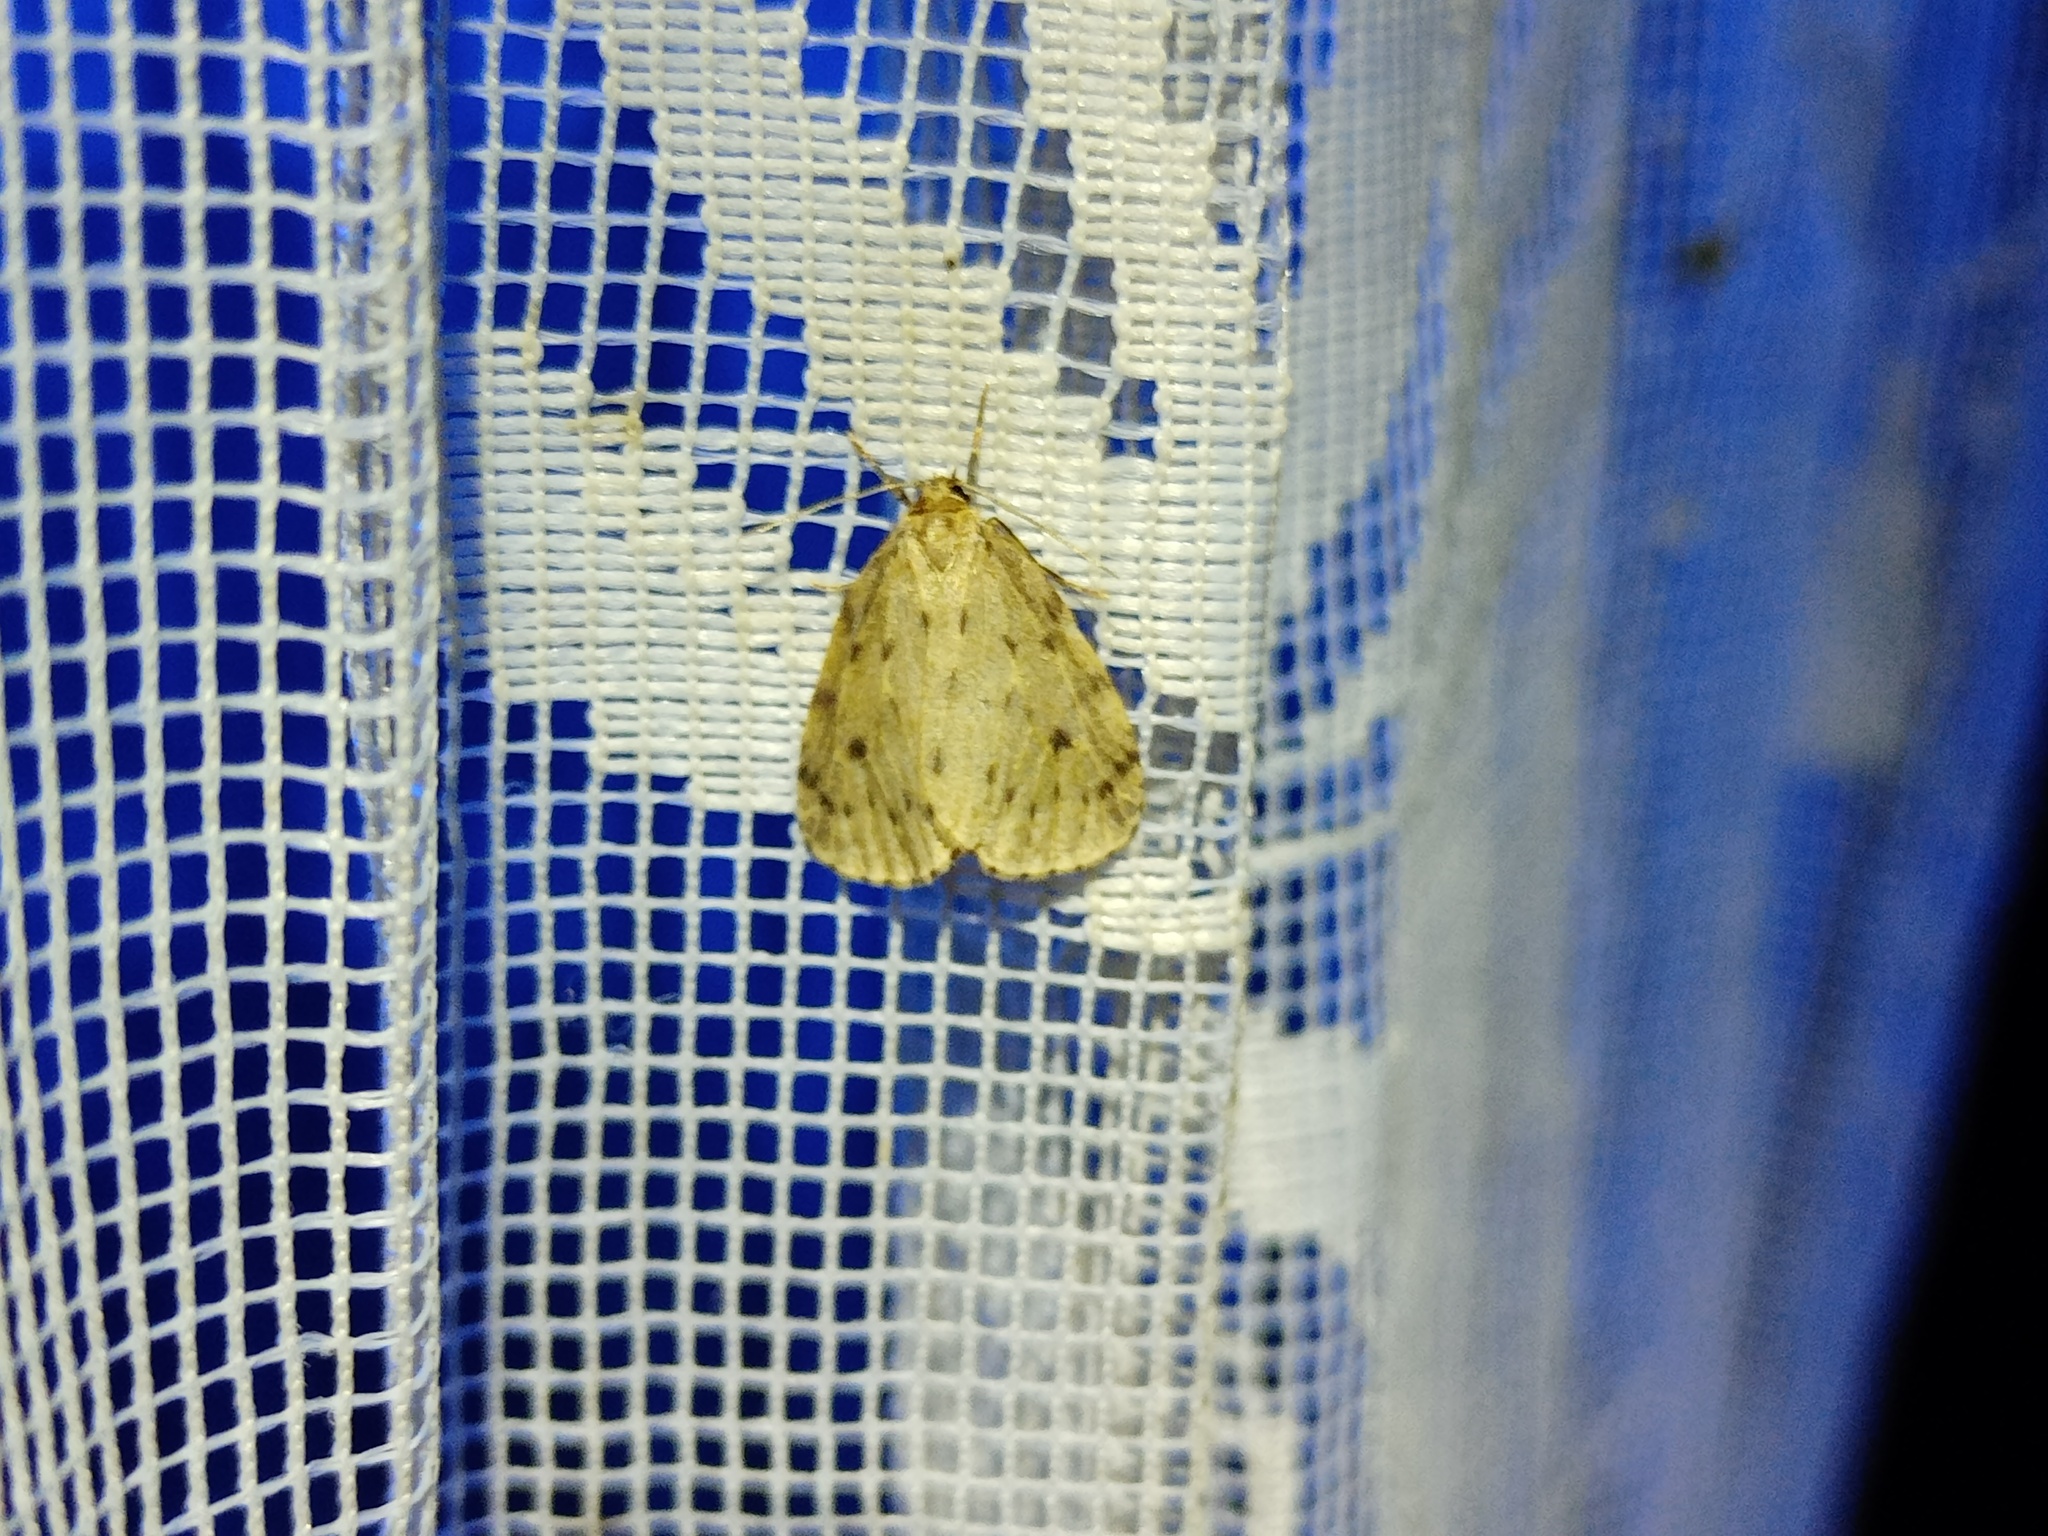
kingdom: Animalia
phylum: Arthropoda
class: Insecta
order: Lepidoptera
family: Erebidae
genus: Thumatha
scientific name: Thumatha senex
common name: Round-winged muslin
